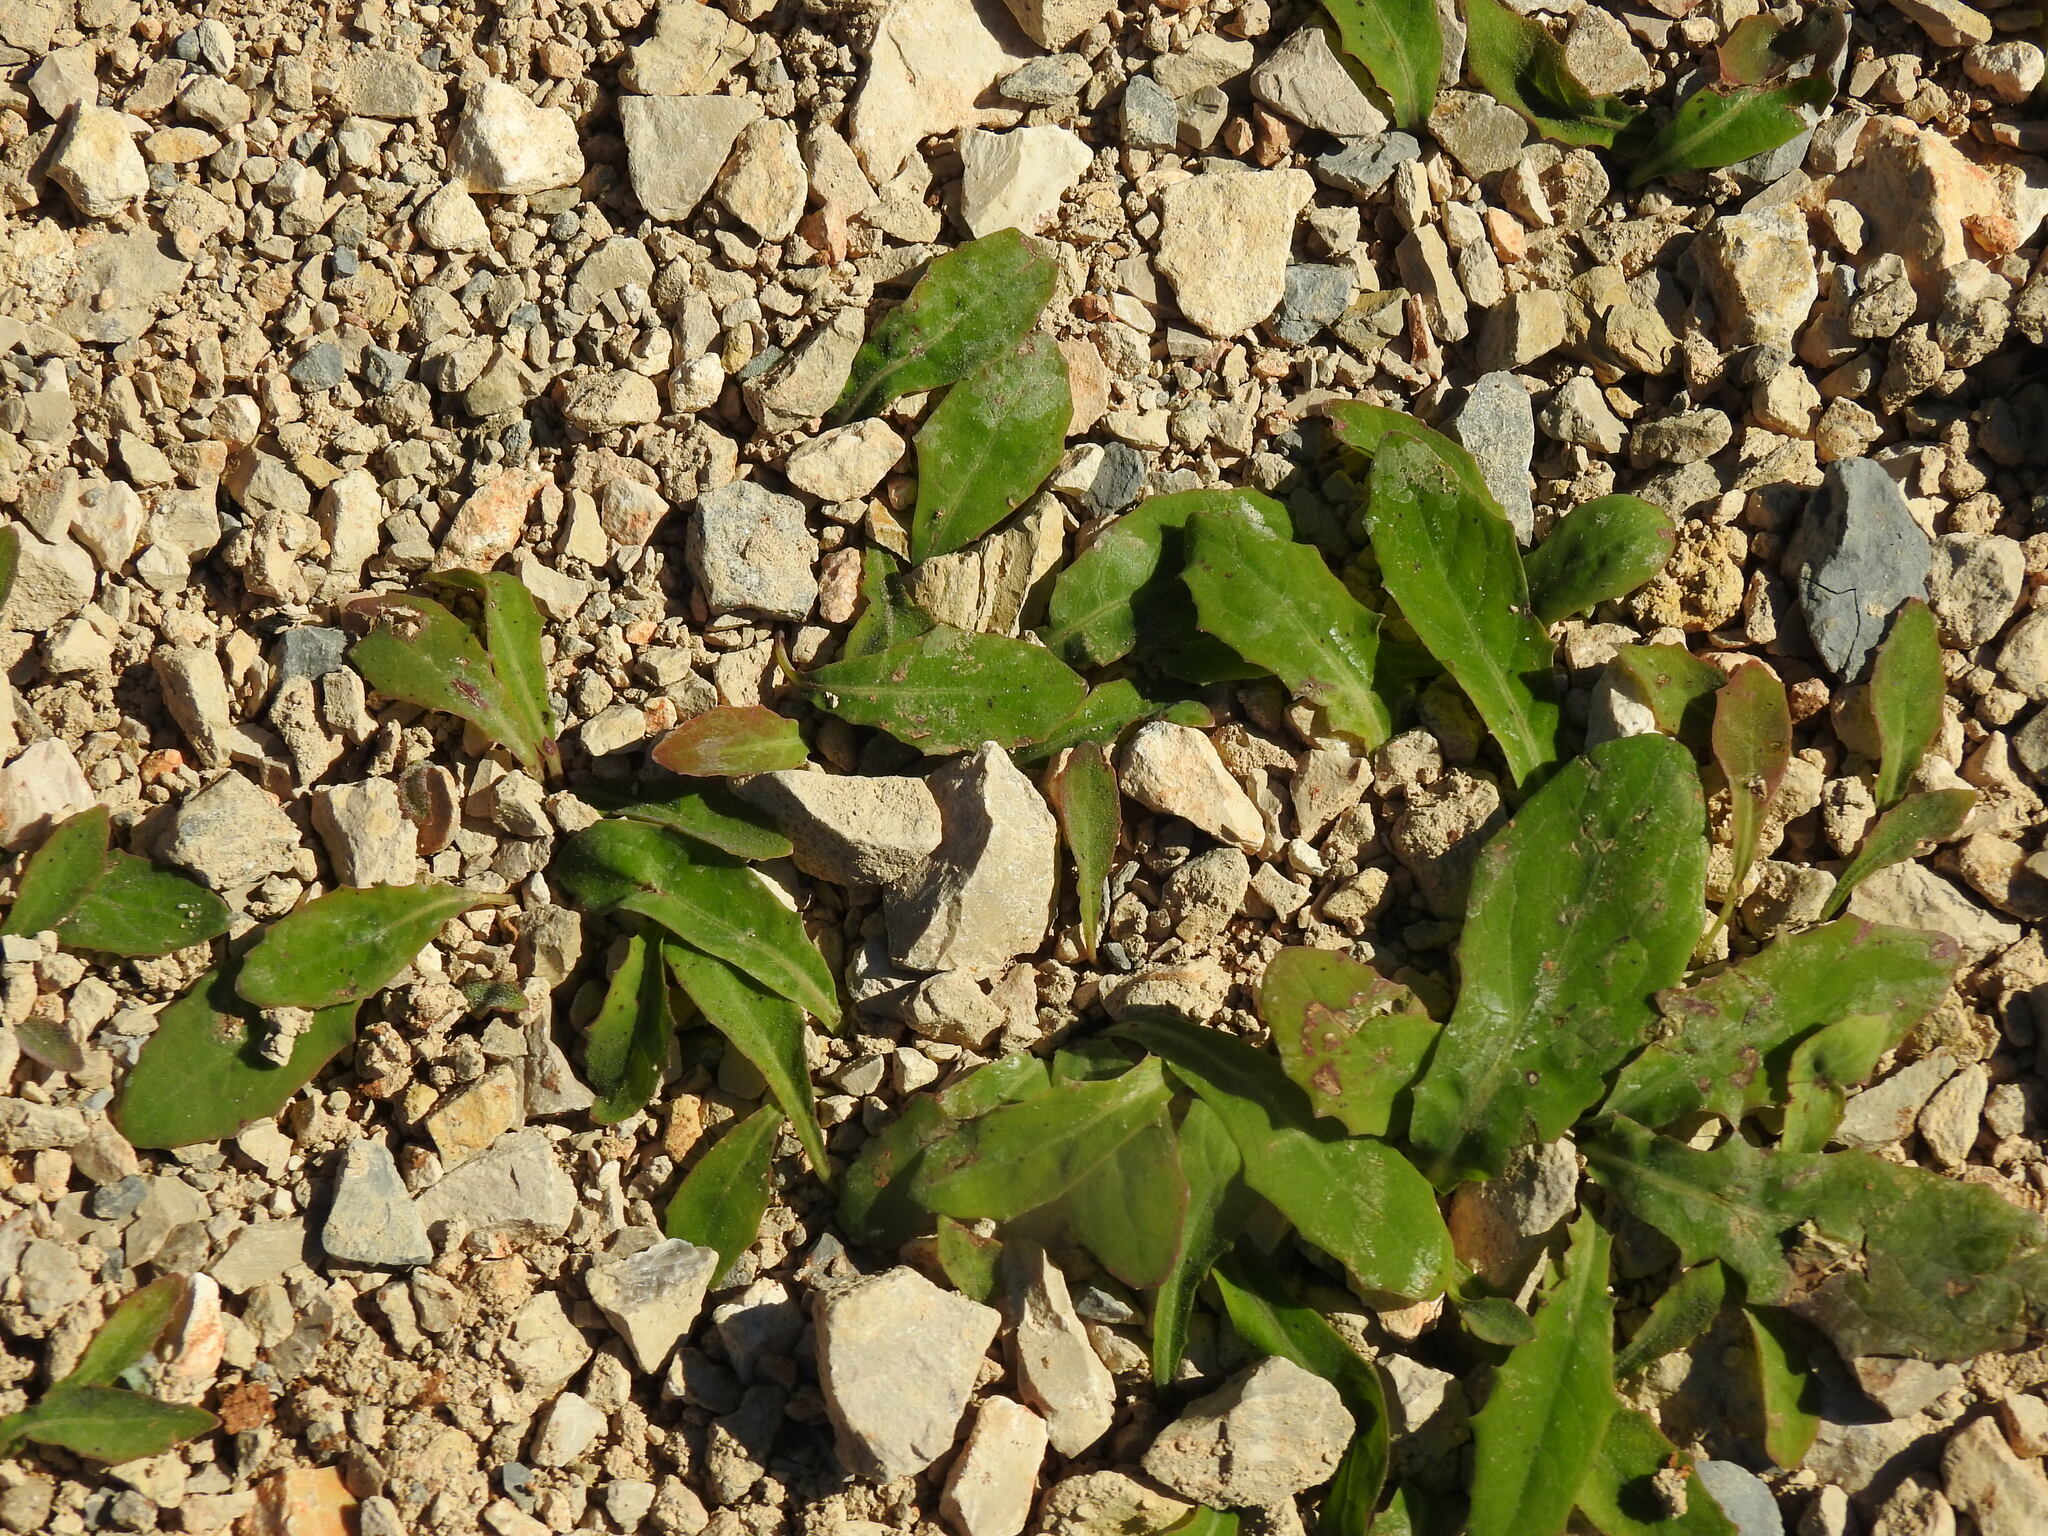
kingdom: Plantae
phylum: Tracheophyta
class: Magnoliopsida
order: Asterales
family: Asteraceae
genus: Aetheorhiza
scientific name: Aetheorhiza bulbosa
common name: Tuberous hawk's-beard
